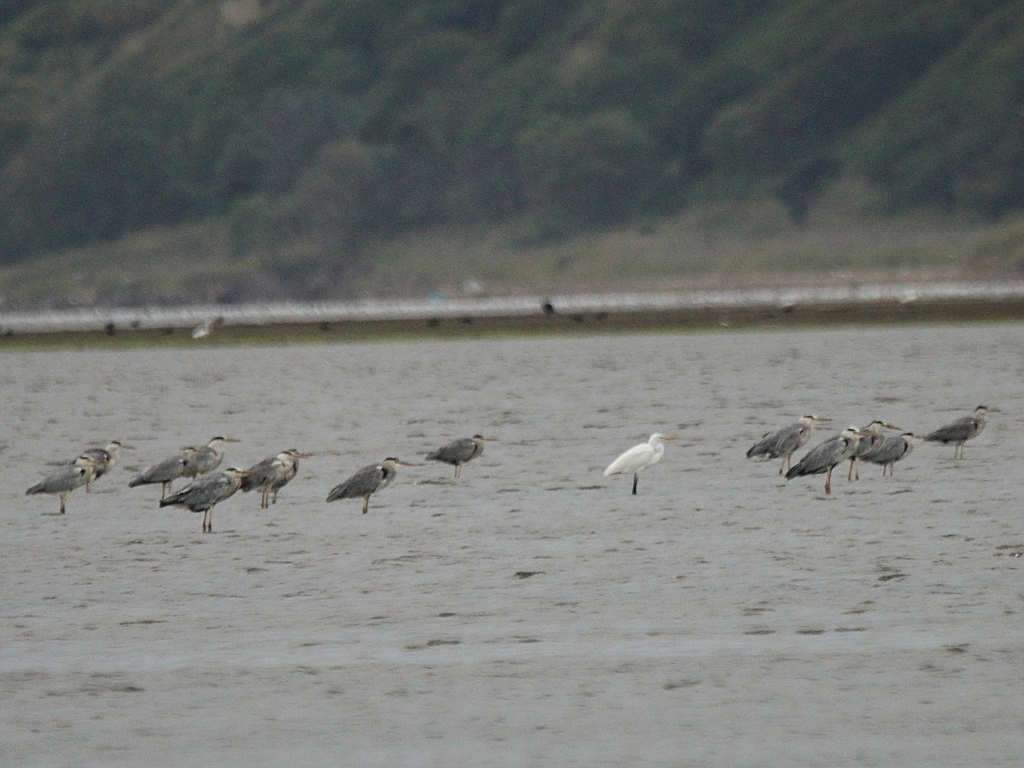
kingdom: Animalia
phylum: Chordata
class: Aves
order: Pelecaniformes
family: Ardeidae
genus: Ardea
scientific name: Ardea cinerea
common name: Grey heron
